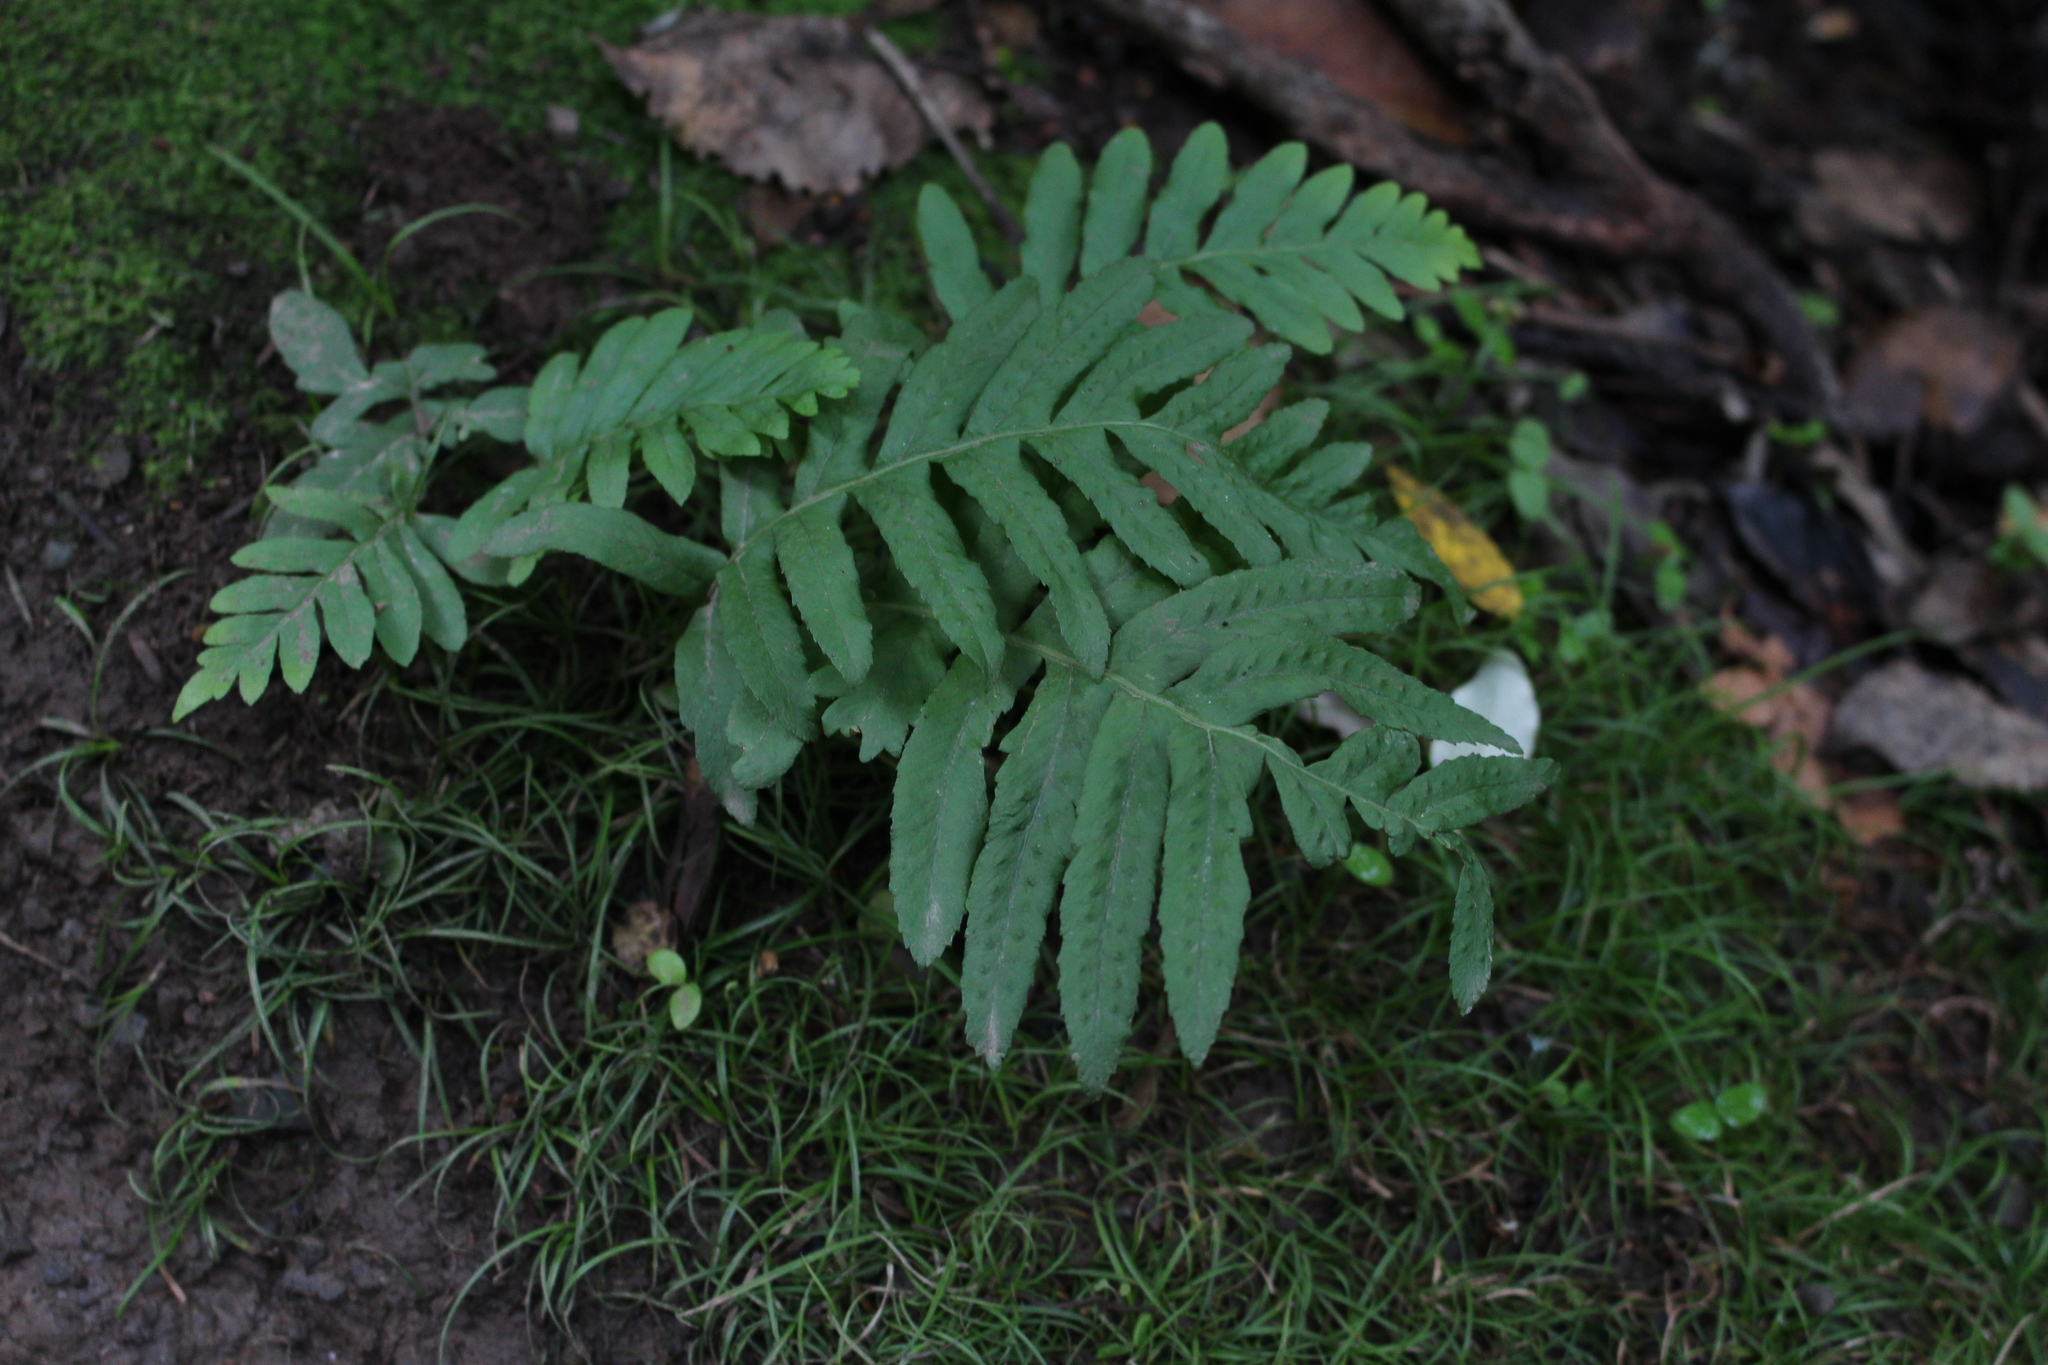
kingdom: Plantae
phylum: Tracheophyta
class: Polypodiopsida
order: Polypodiales
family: Polypodiaceae
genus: Polypodium
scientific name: Polypodium vulgare
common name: Common polypody
